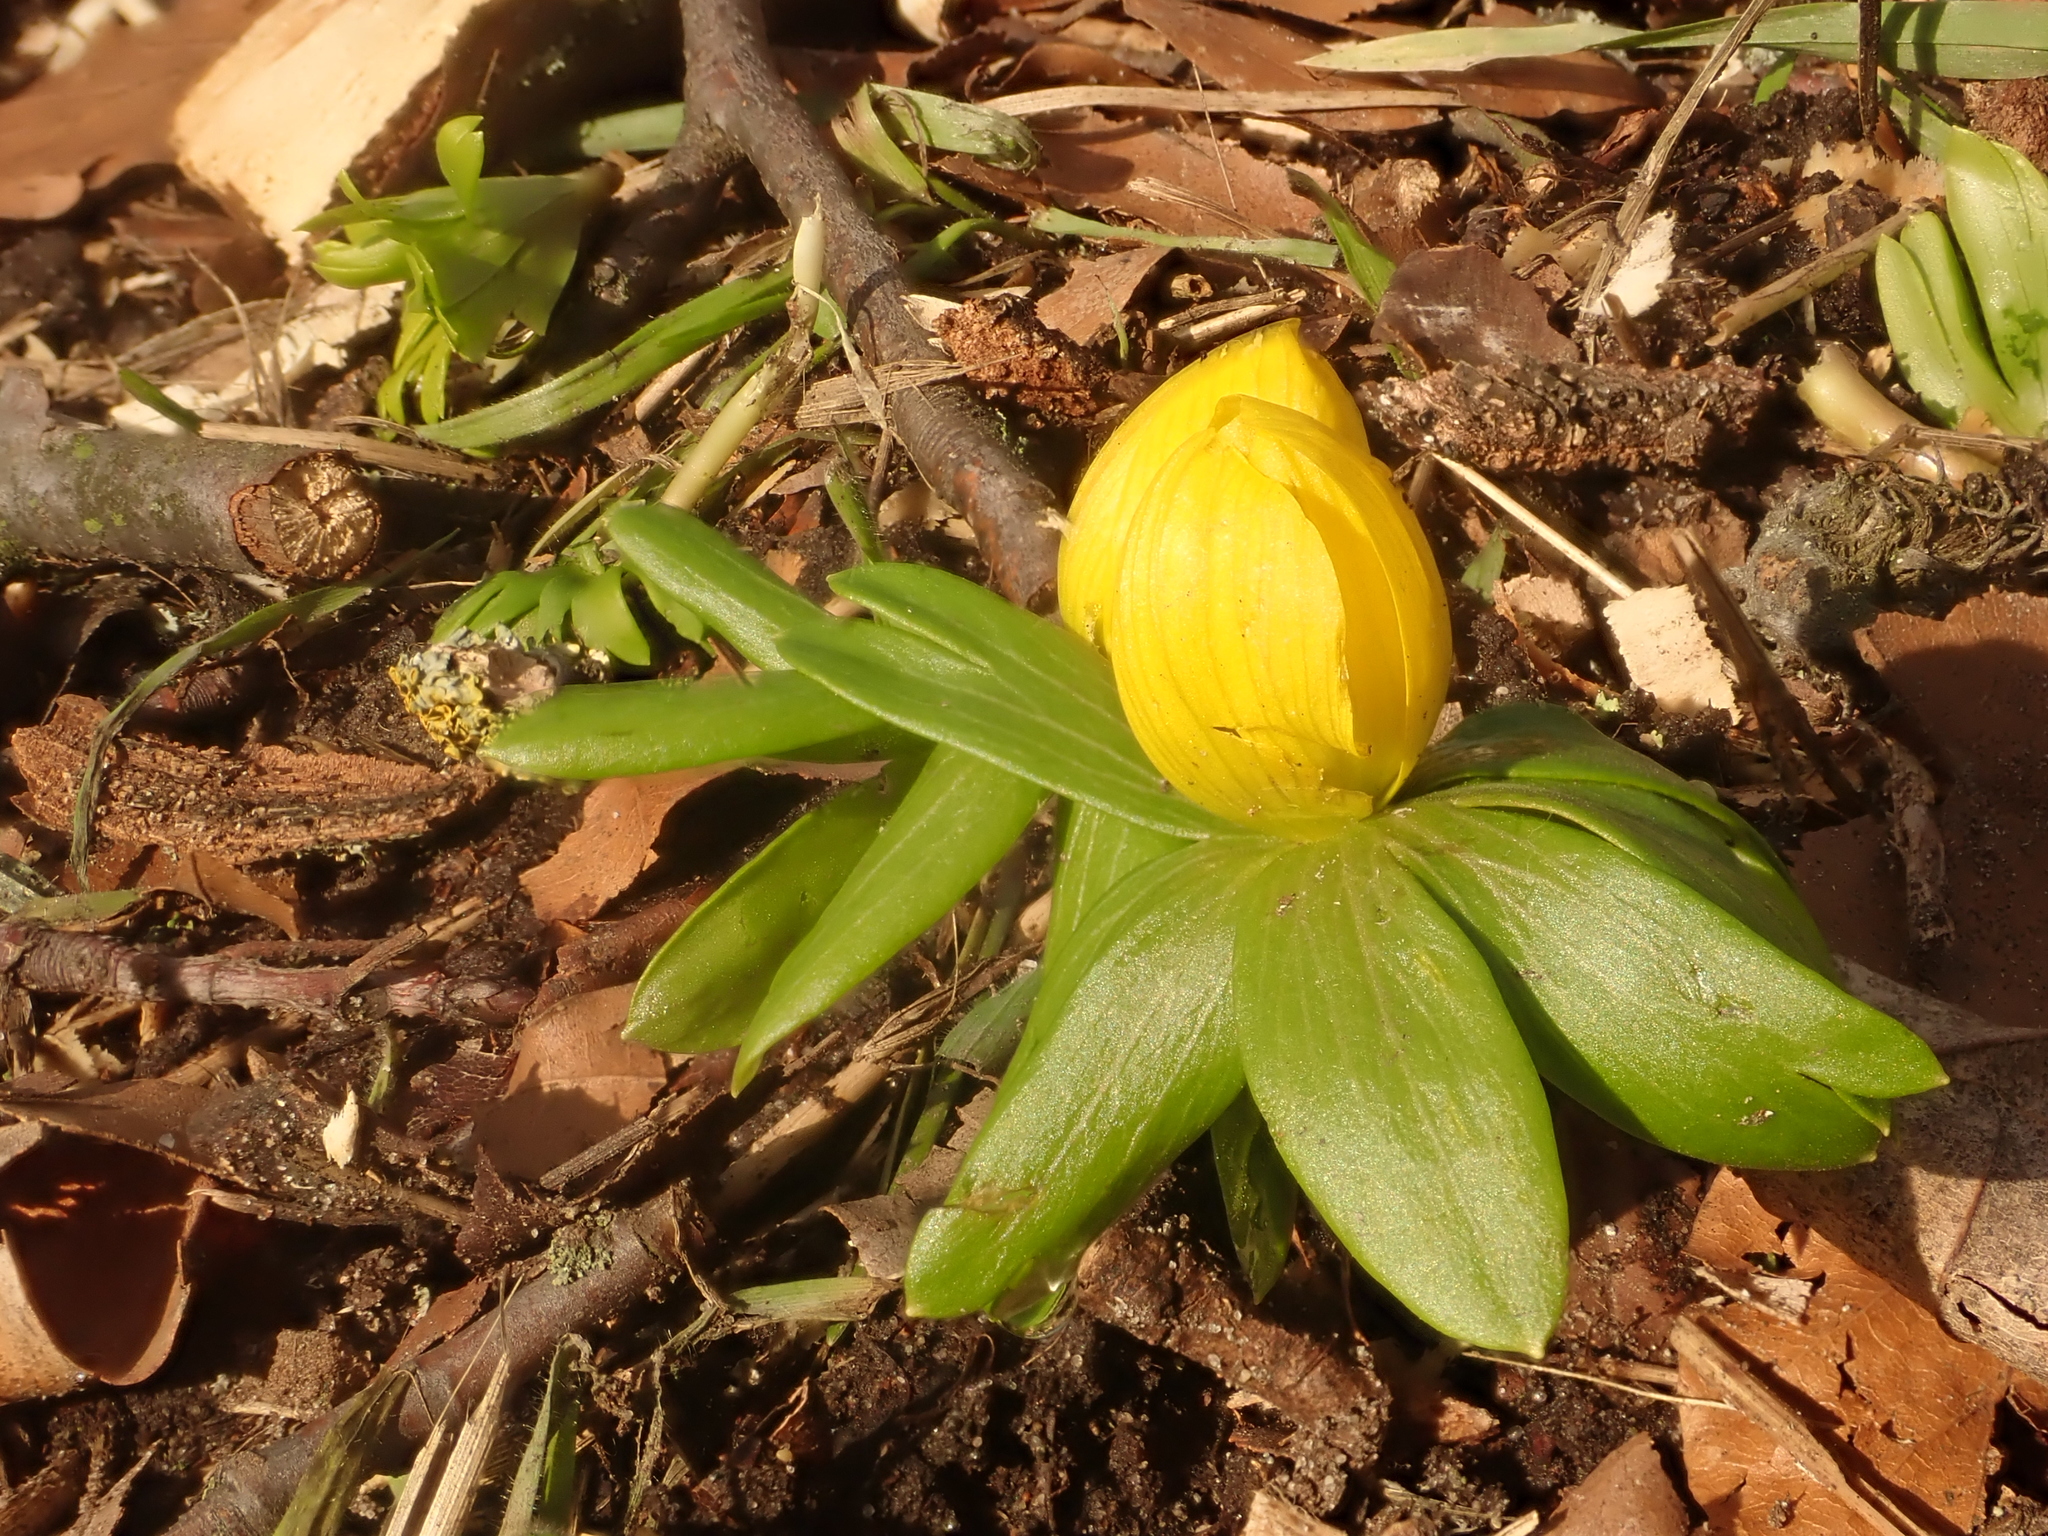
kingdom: Plantae
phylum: Tracheophyta
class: Magnoliopsida
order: Ranunculales
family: Ranunculaceae
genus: Eranthis
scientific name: Eranthis hyemalis
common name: Winter aconite
